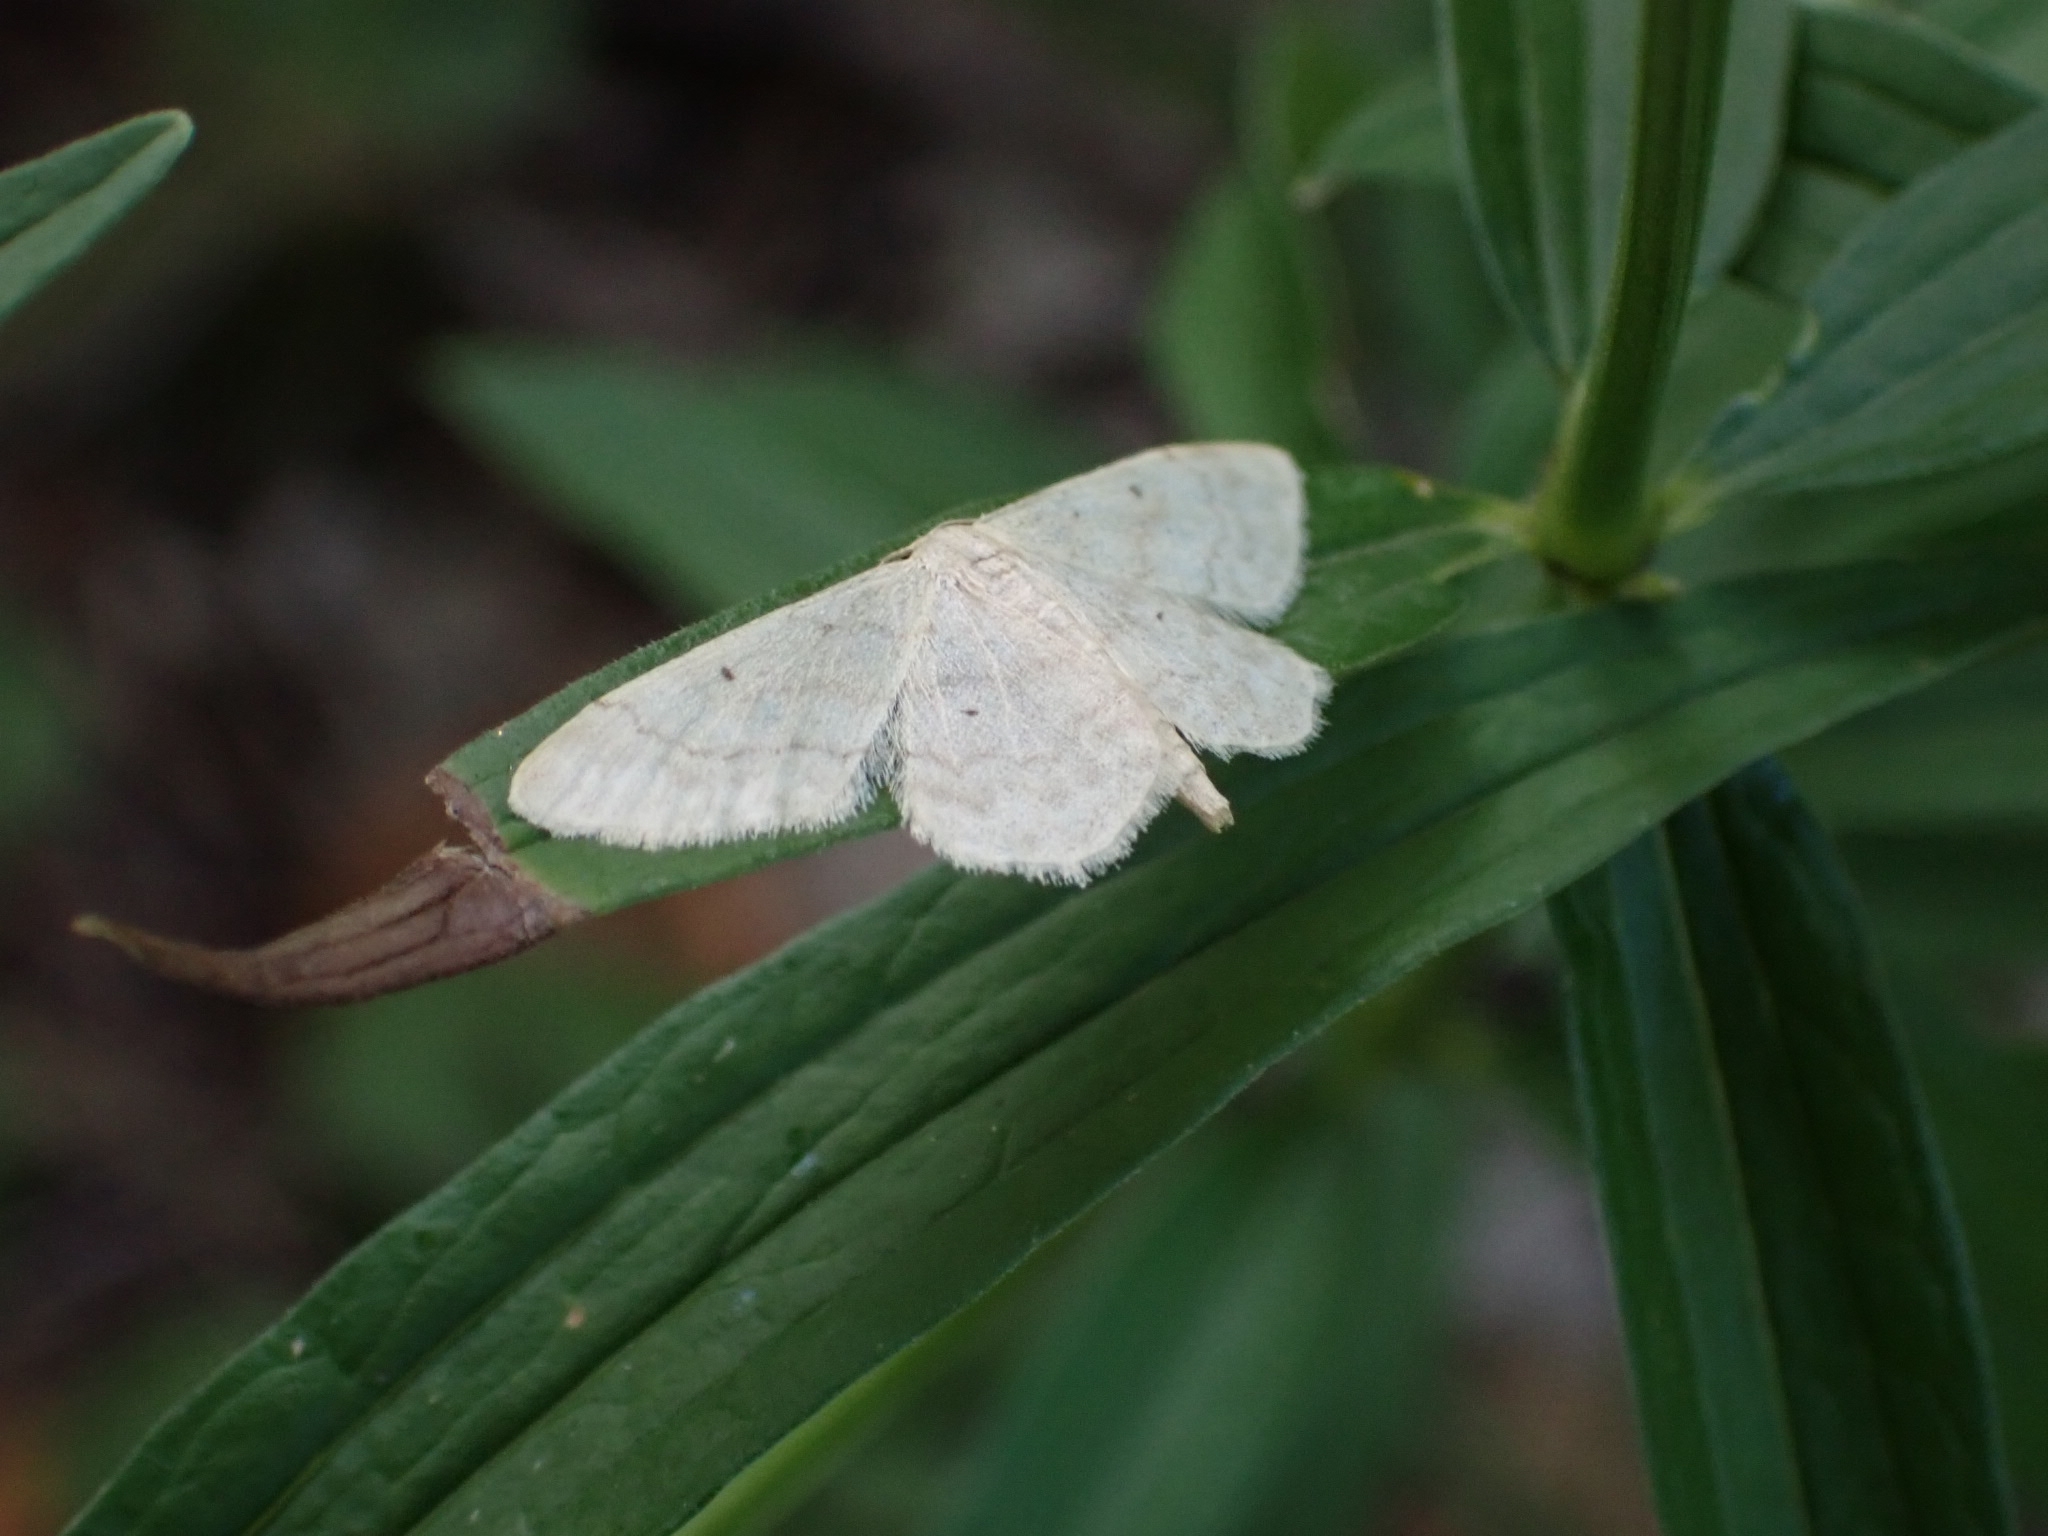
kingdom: Animalia
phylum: Arthropoda
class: Insecta
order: Lepidoptera
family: Geometridae
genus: Idaea
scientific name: Idaea biselata
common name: Small fan-footed wave
